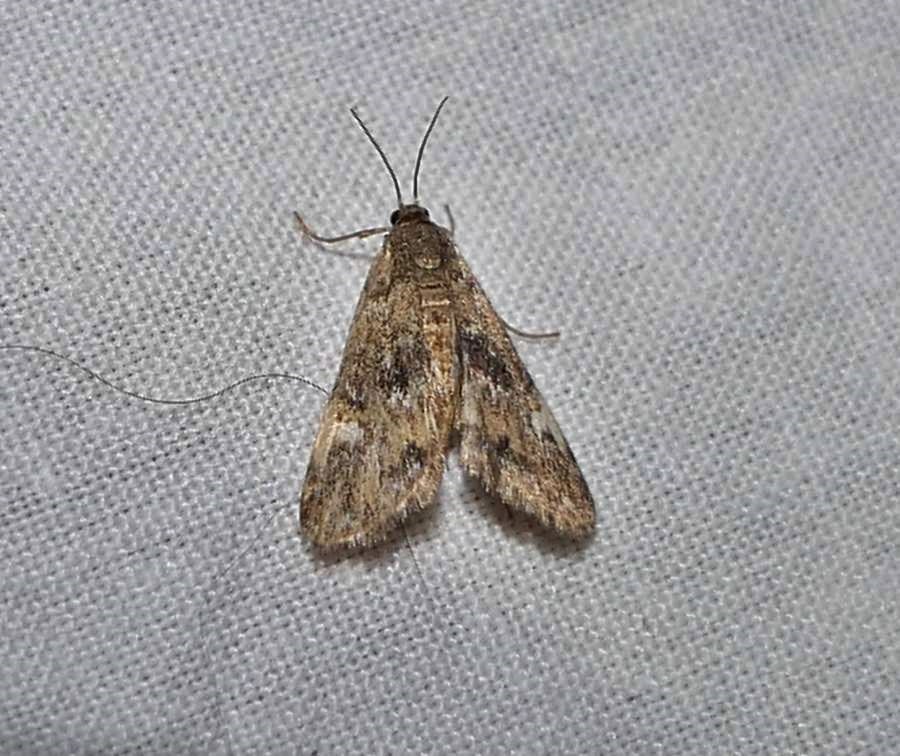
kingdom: Animalia
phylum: Arthropoda
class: Insecta
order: Lepidoptera
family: Crambidae
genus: Elophila
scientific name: Elophila obliteralis
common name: Waterlily leafcutter moth
